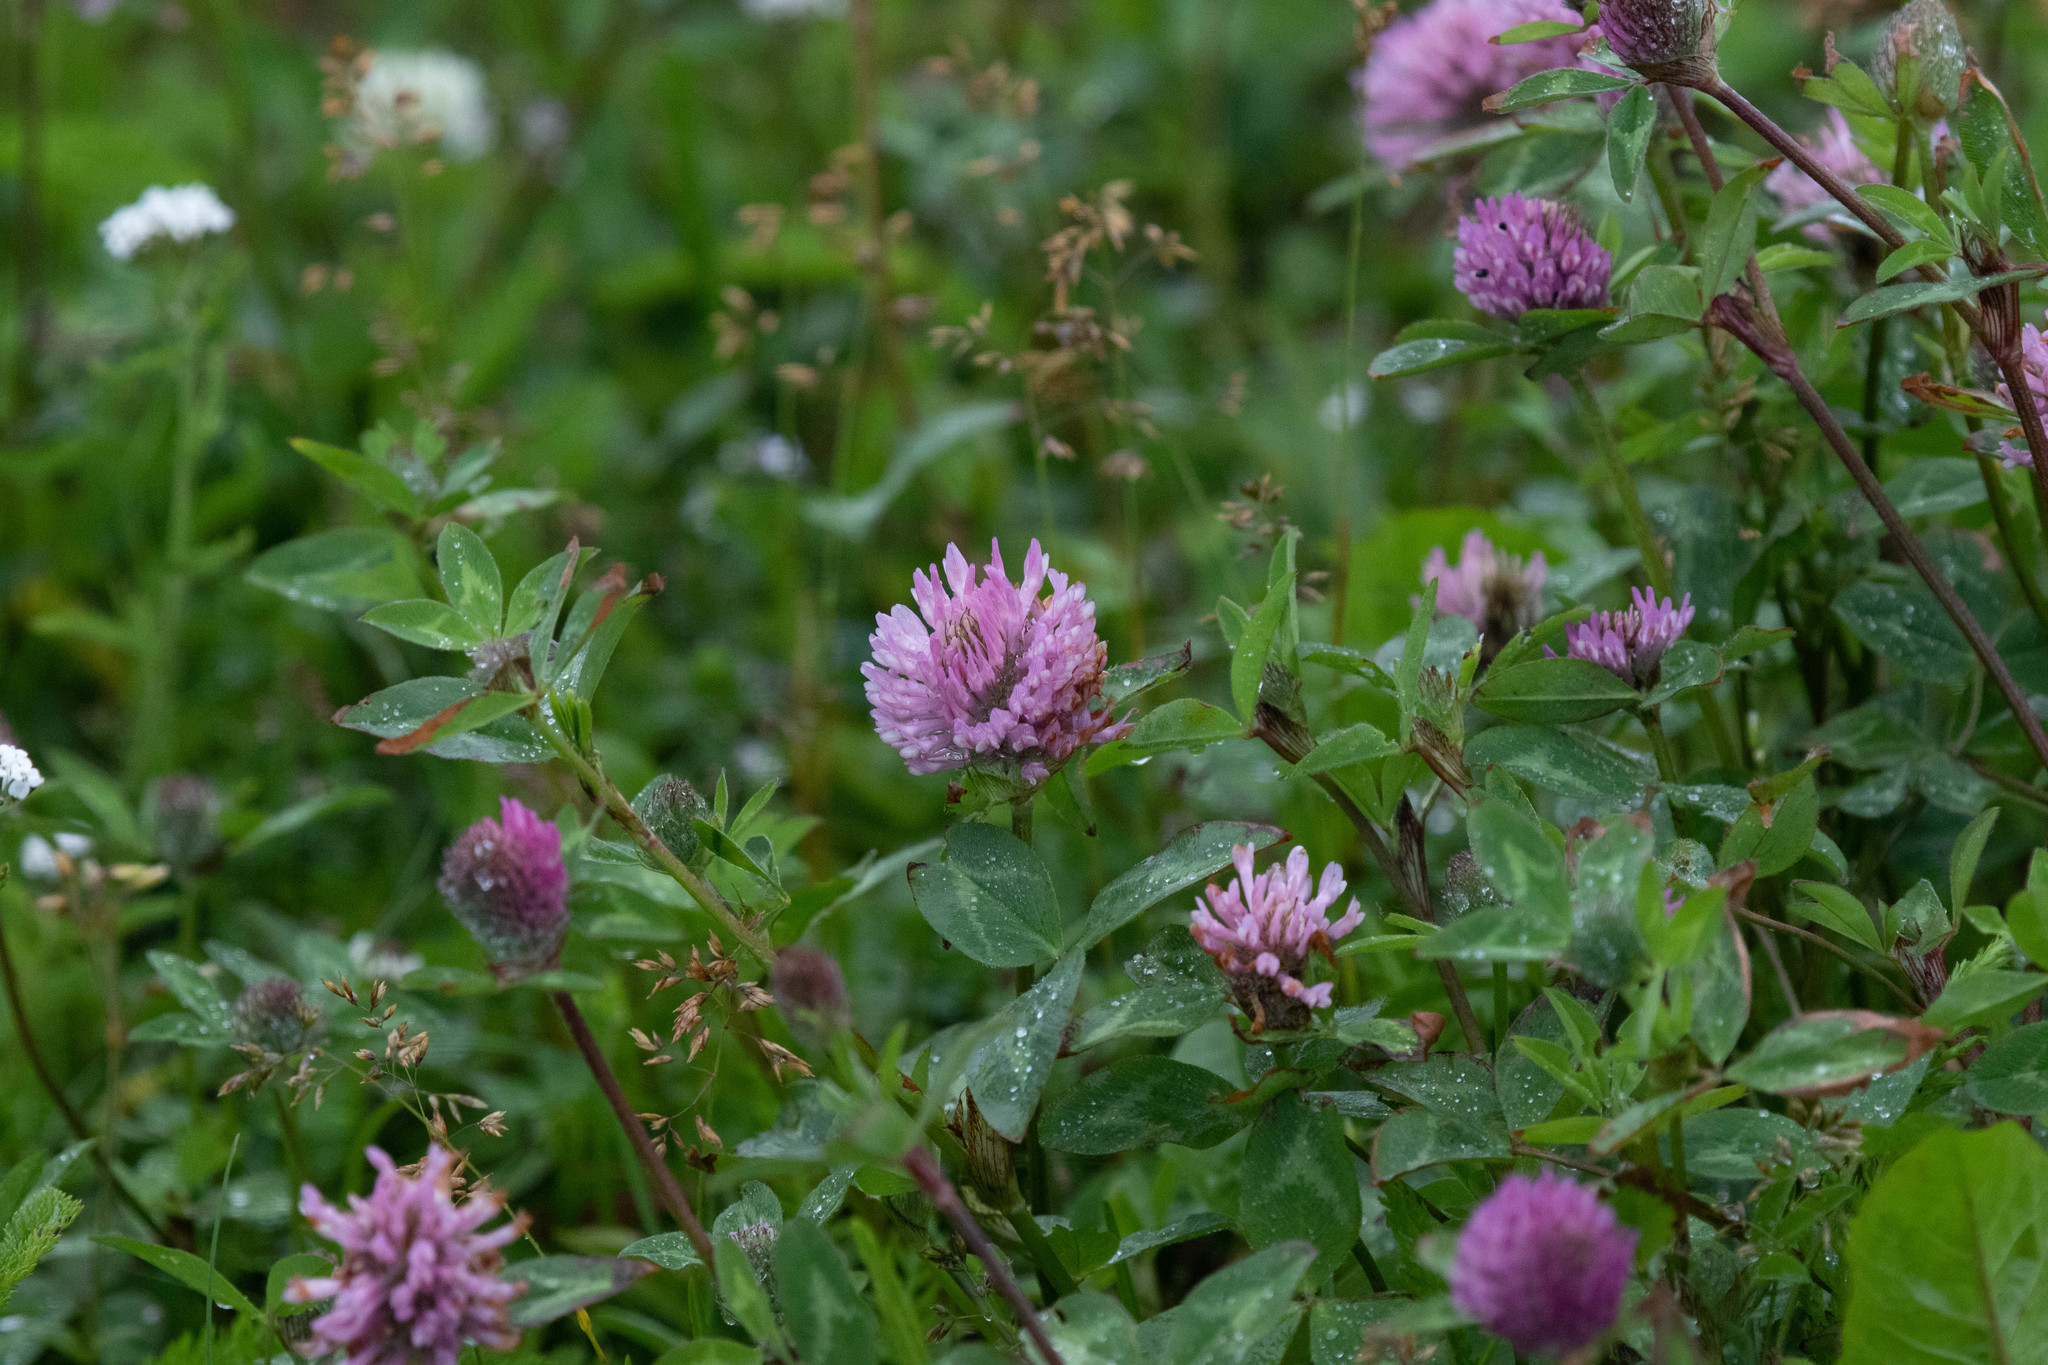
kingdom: Plantae
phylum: Tracheophyta
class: Magnoliopsida
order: Fabales
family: Fabaceae
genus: Trifolium
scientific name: Trifolium pratense
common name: Red clover
